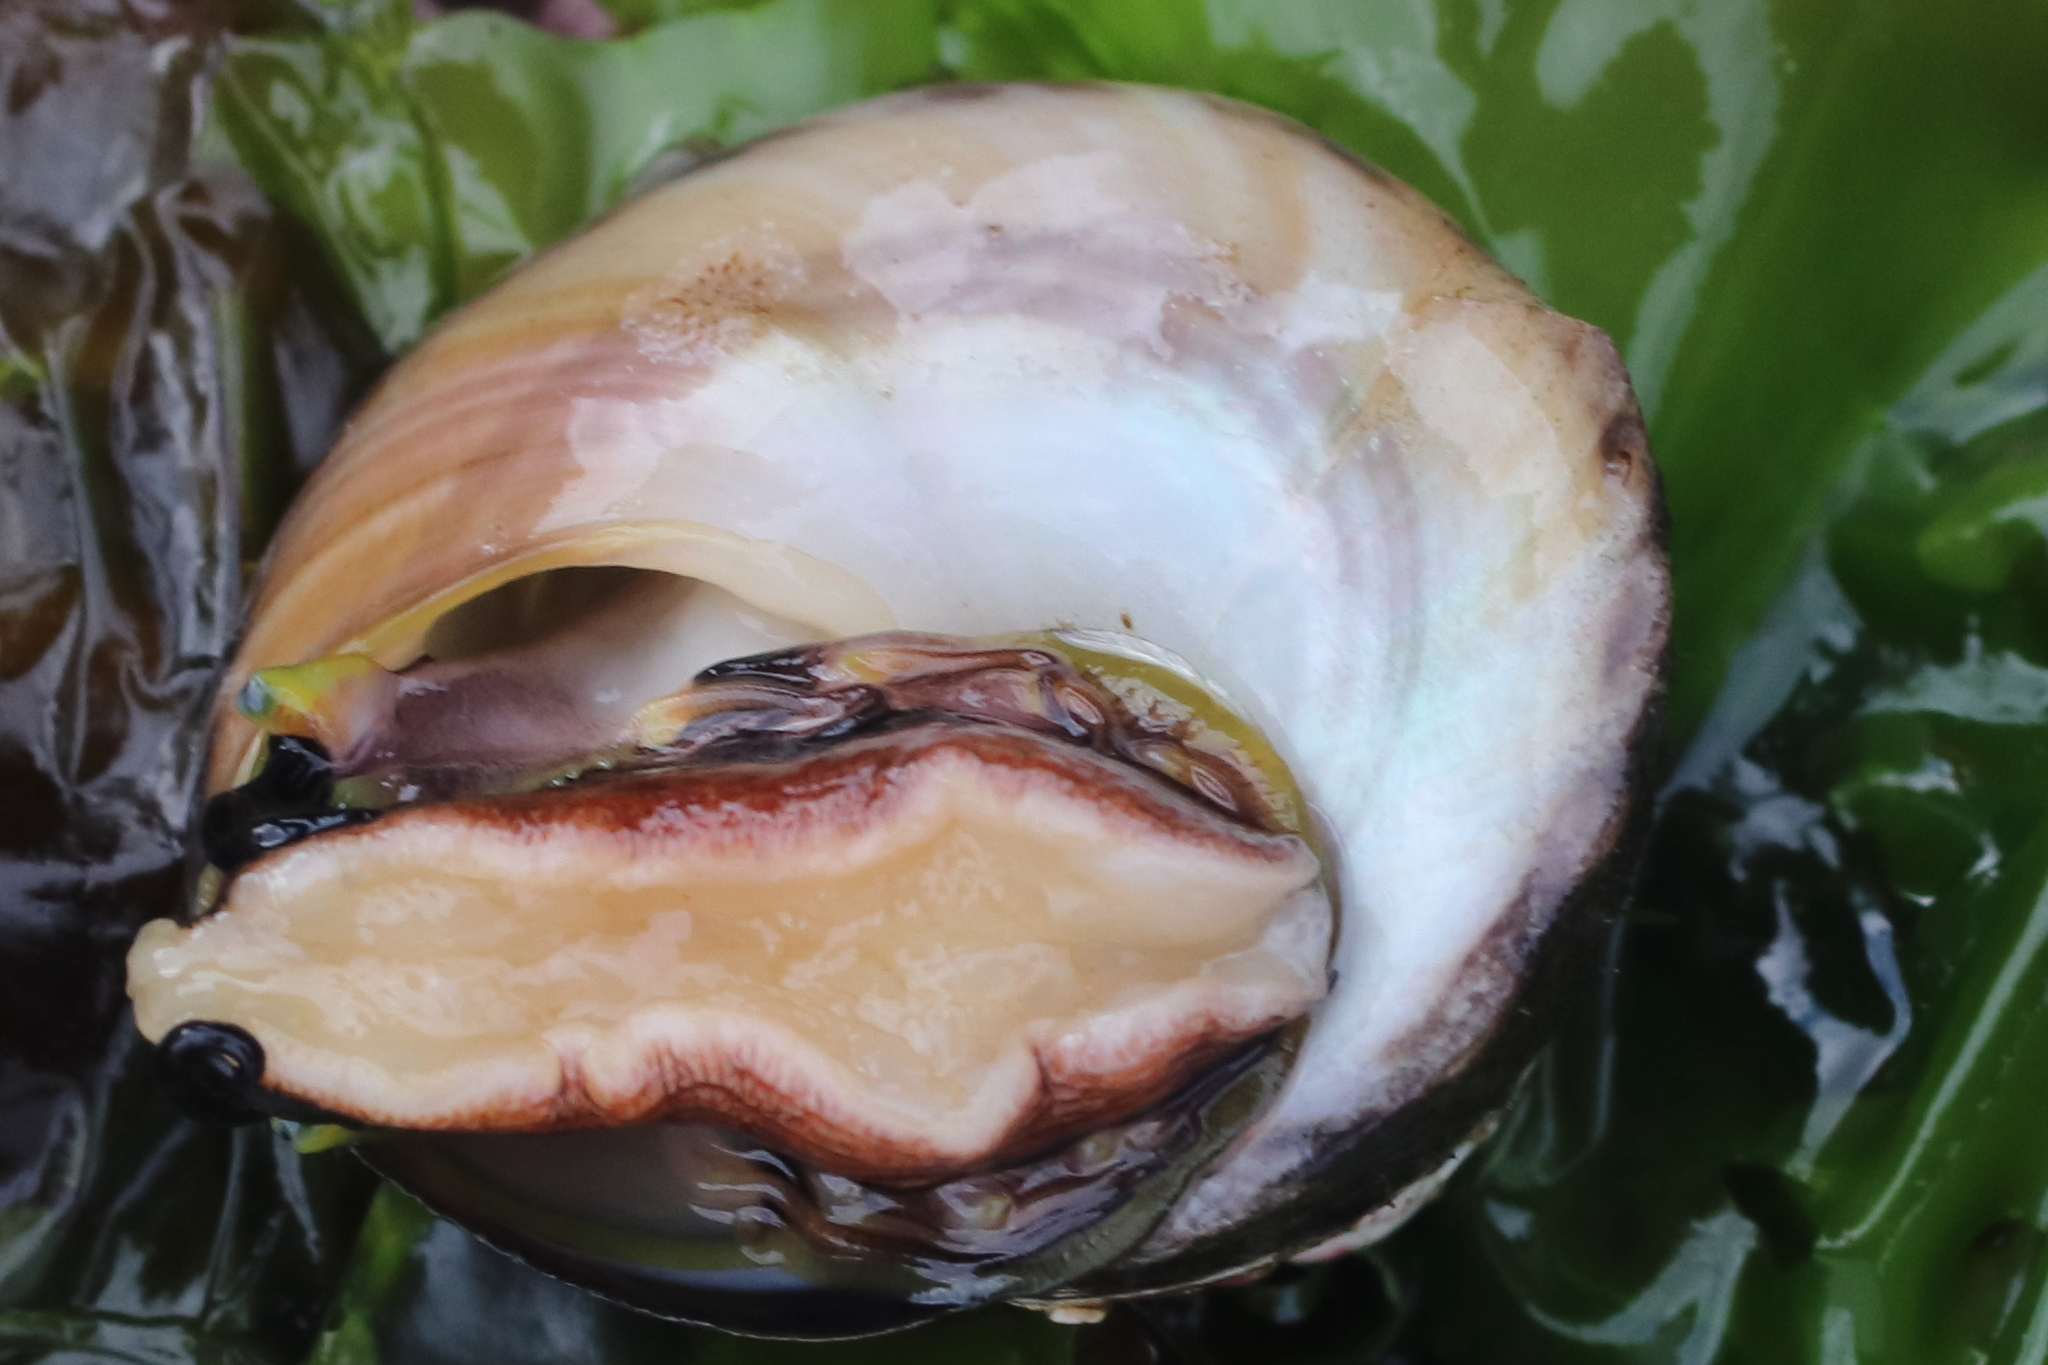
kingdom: Animalia
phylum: Mollusca
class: Gastropoda
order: Trochida
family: Tegulidae
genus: Tegula
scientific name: Tegula pulligo
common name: Brown turban
